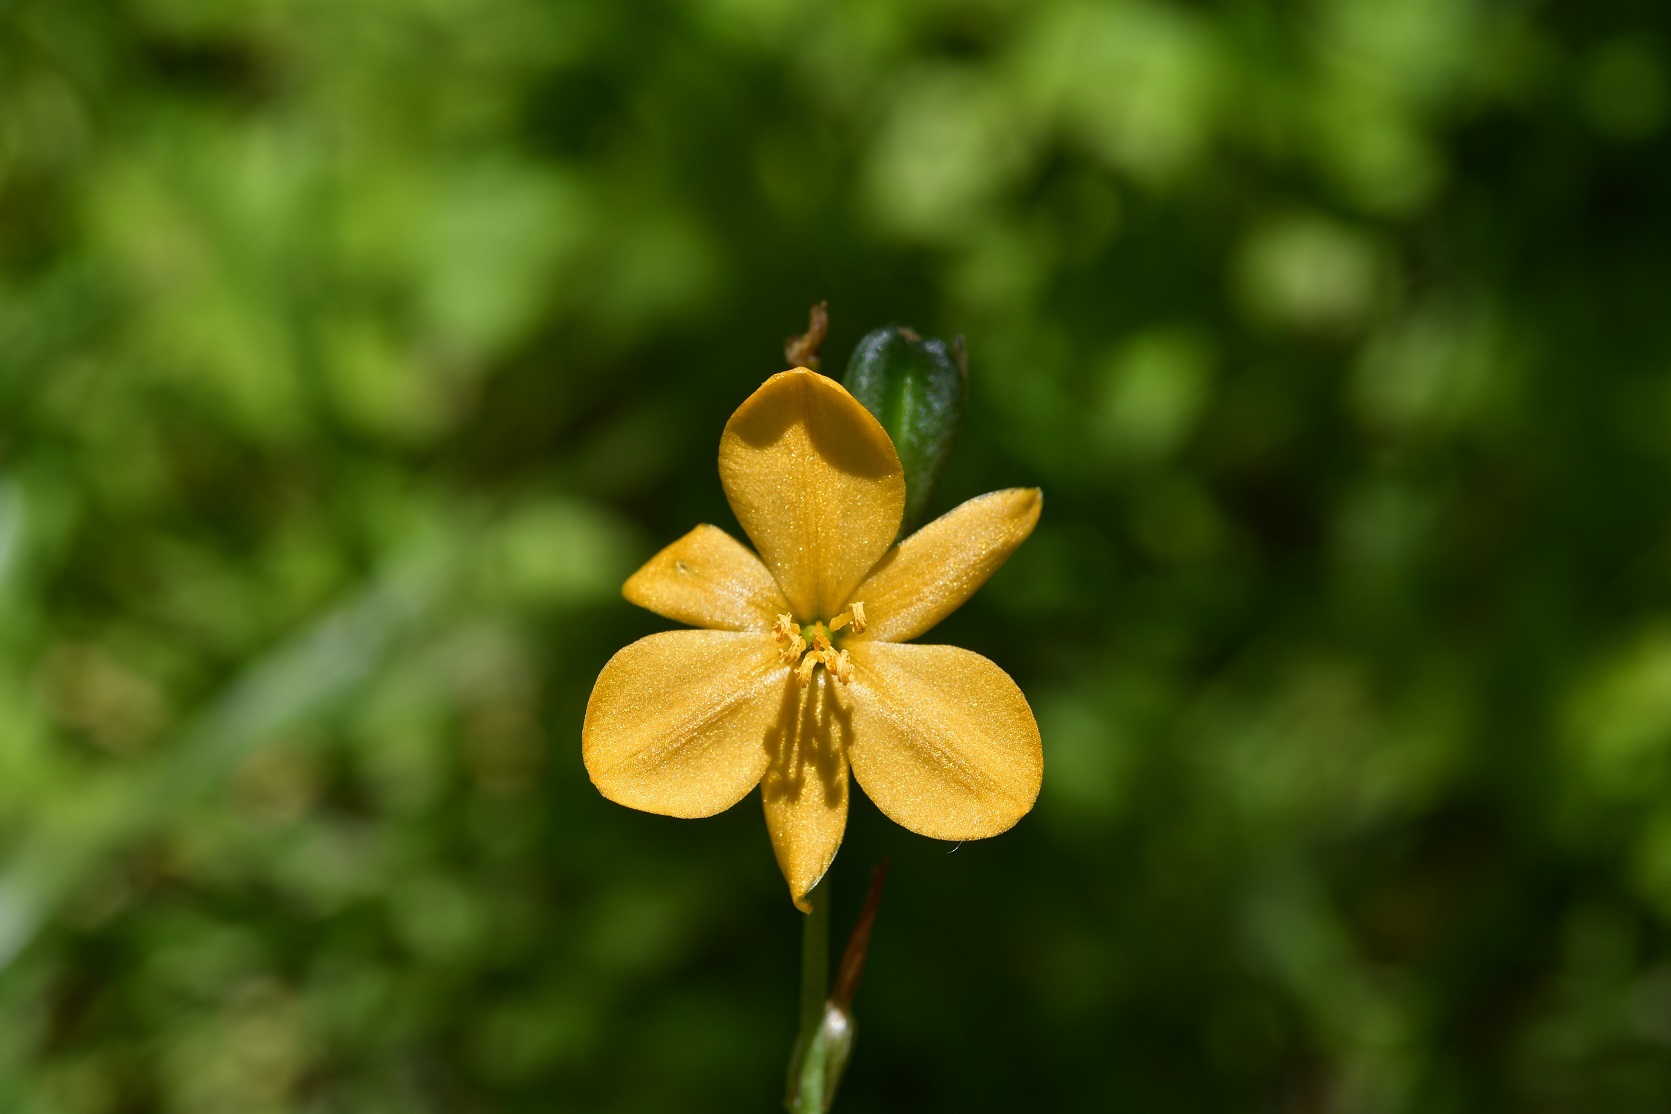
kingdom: Plantae
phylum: Tracheophyta
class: Liliopsida
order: Asparagales
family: Asparagaceae
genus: Echeandia
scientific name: Echeandia skinneri
